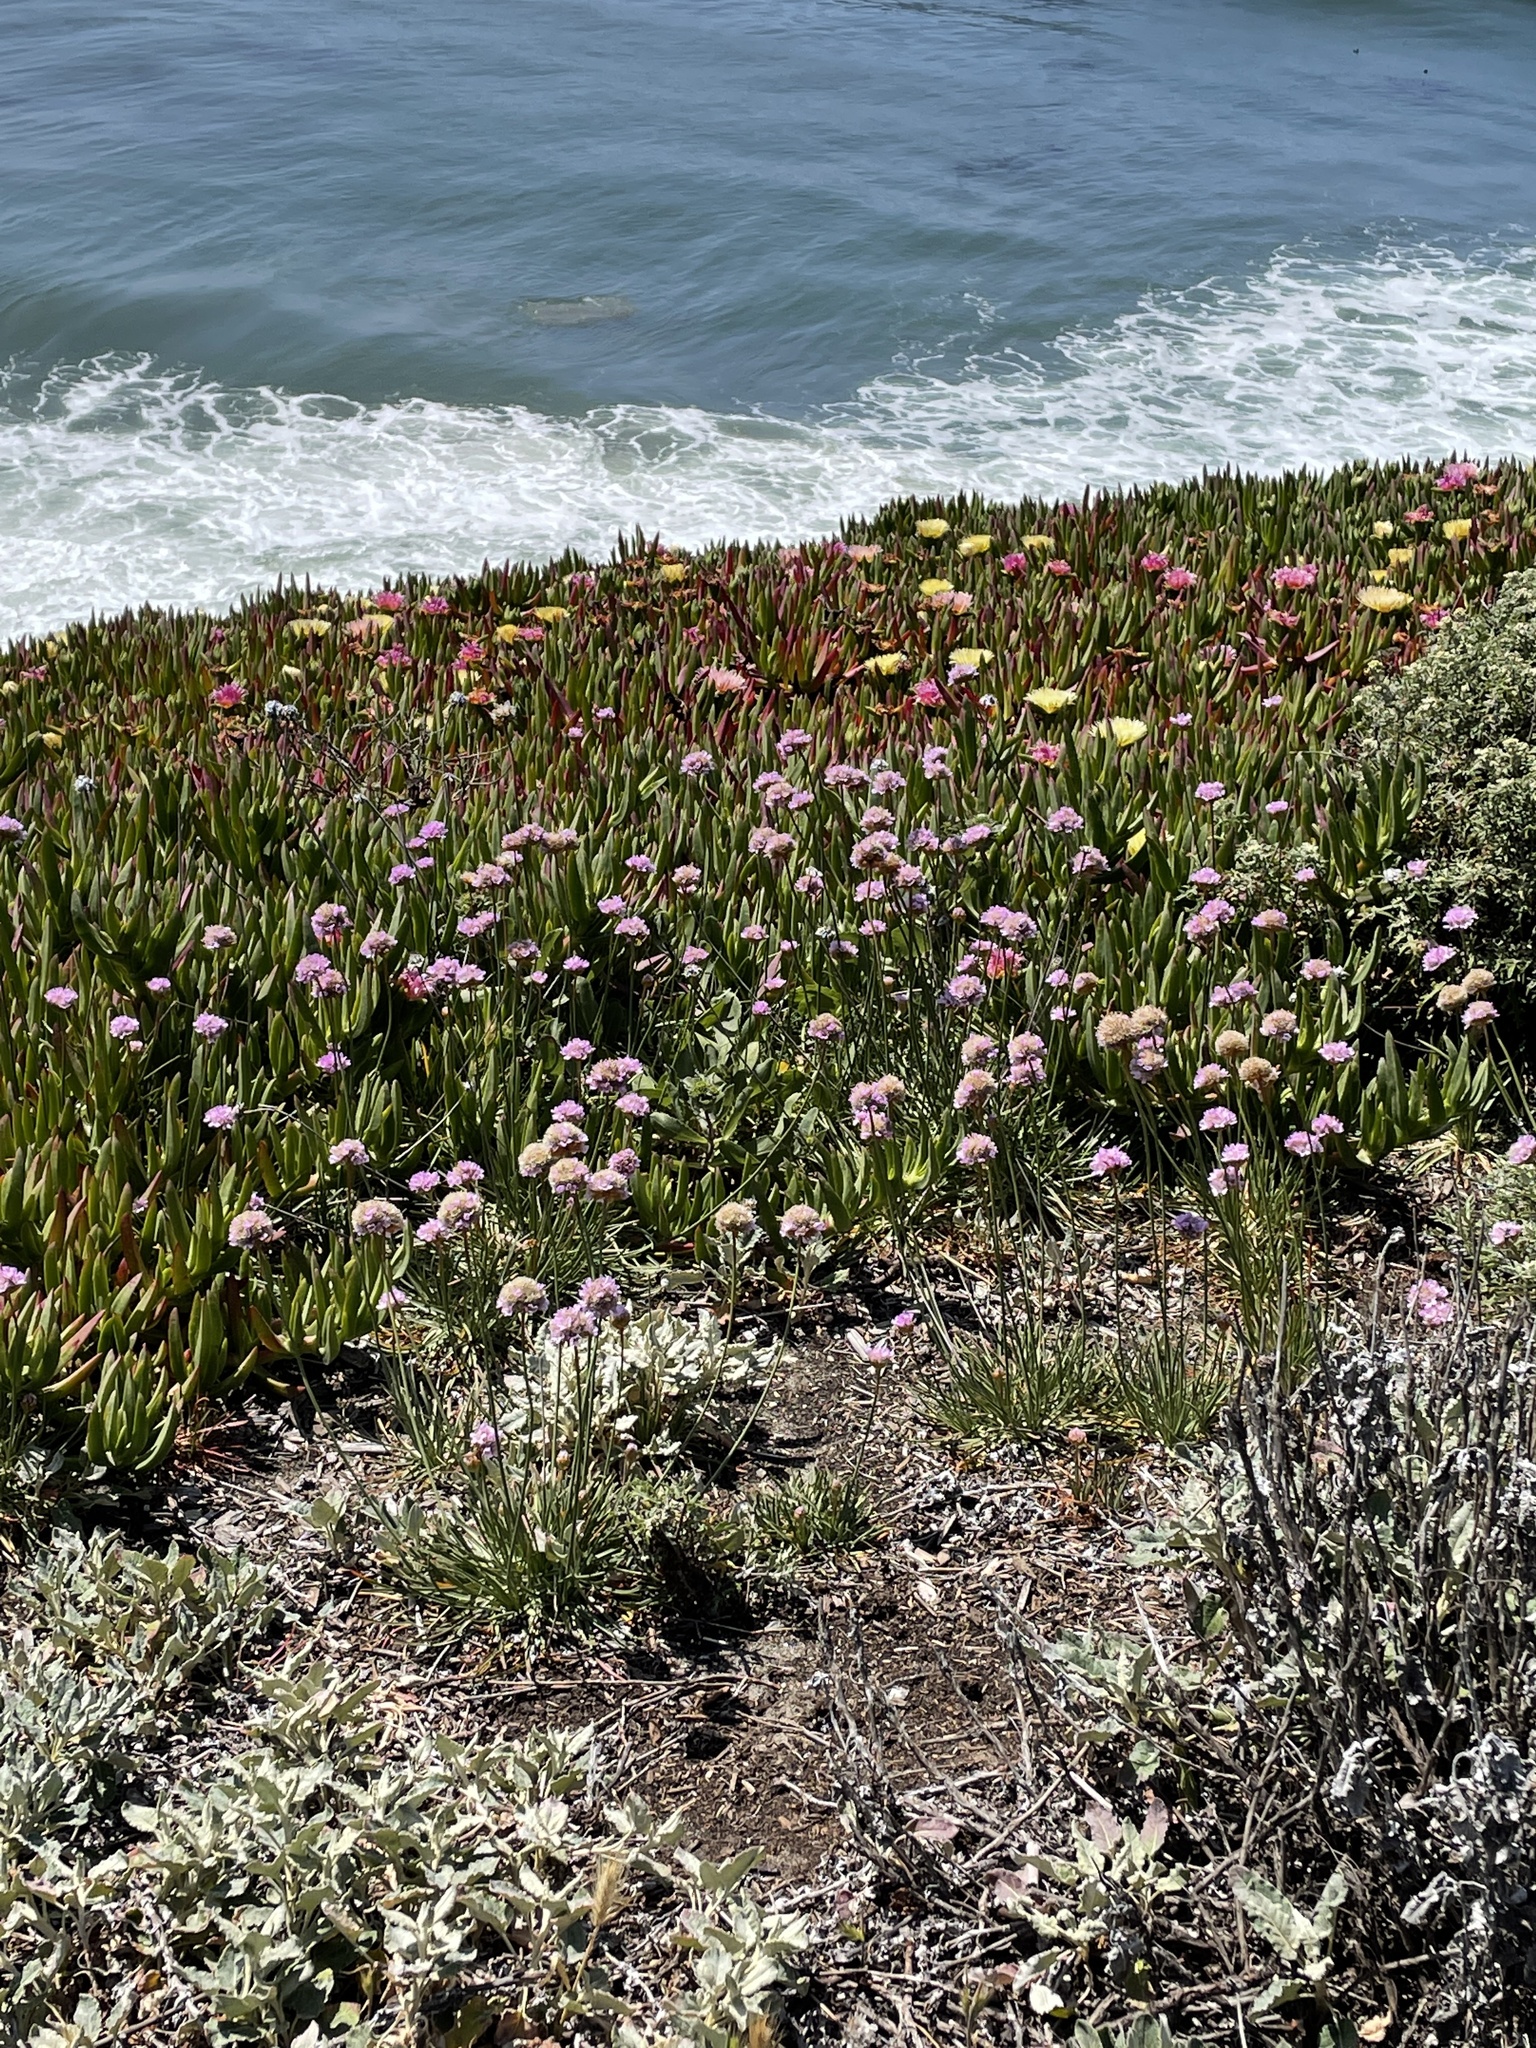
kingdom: Plantae
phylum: Tracheophyta
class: Magnoliopsida
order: Caryophyllales
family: Plumbaginaceae
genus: Armeria
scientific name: Armeria maritima
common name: Thrift
